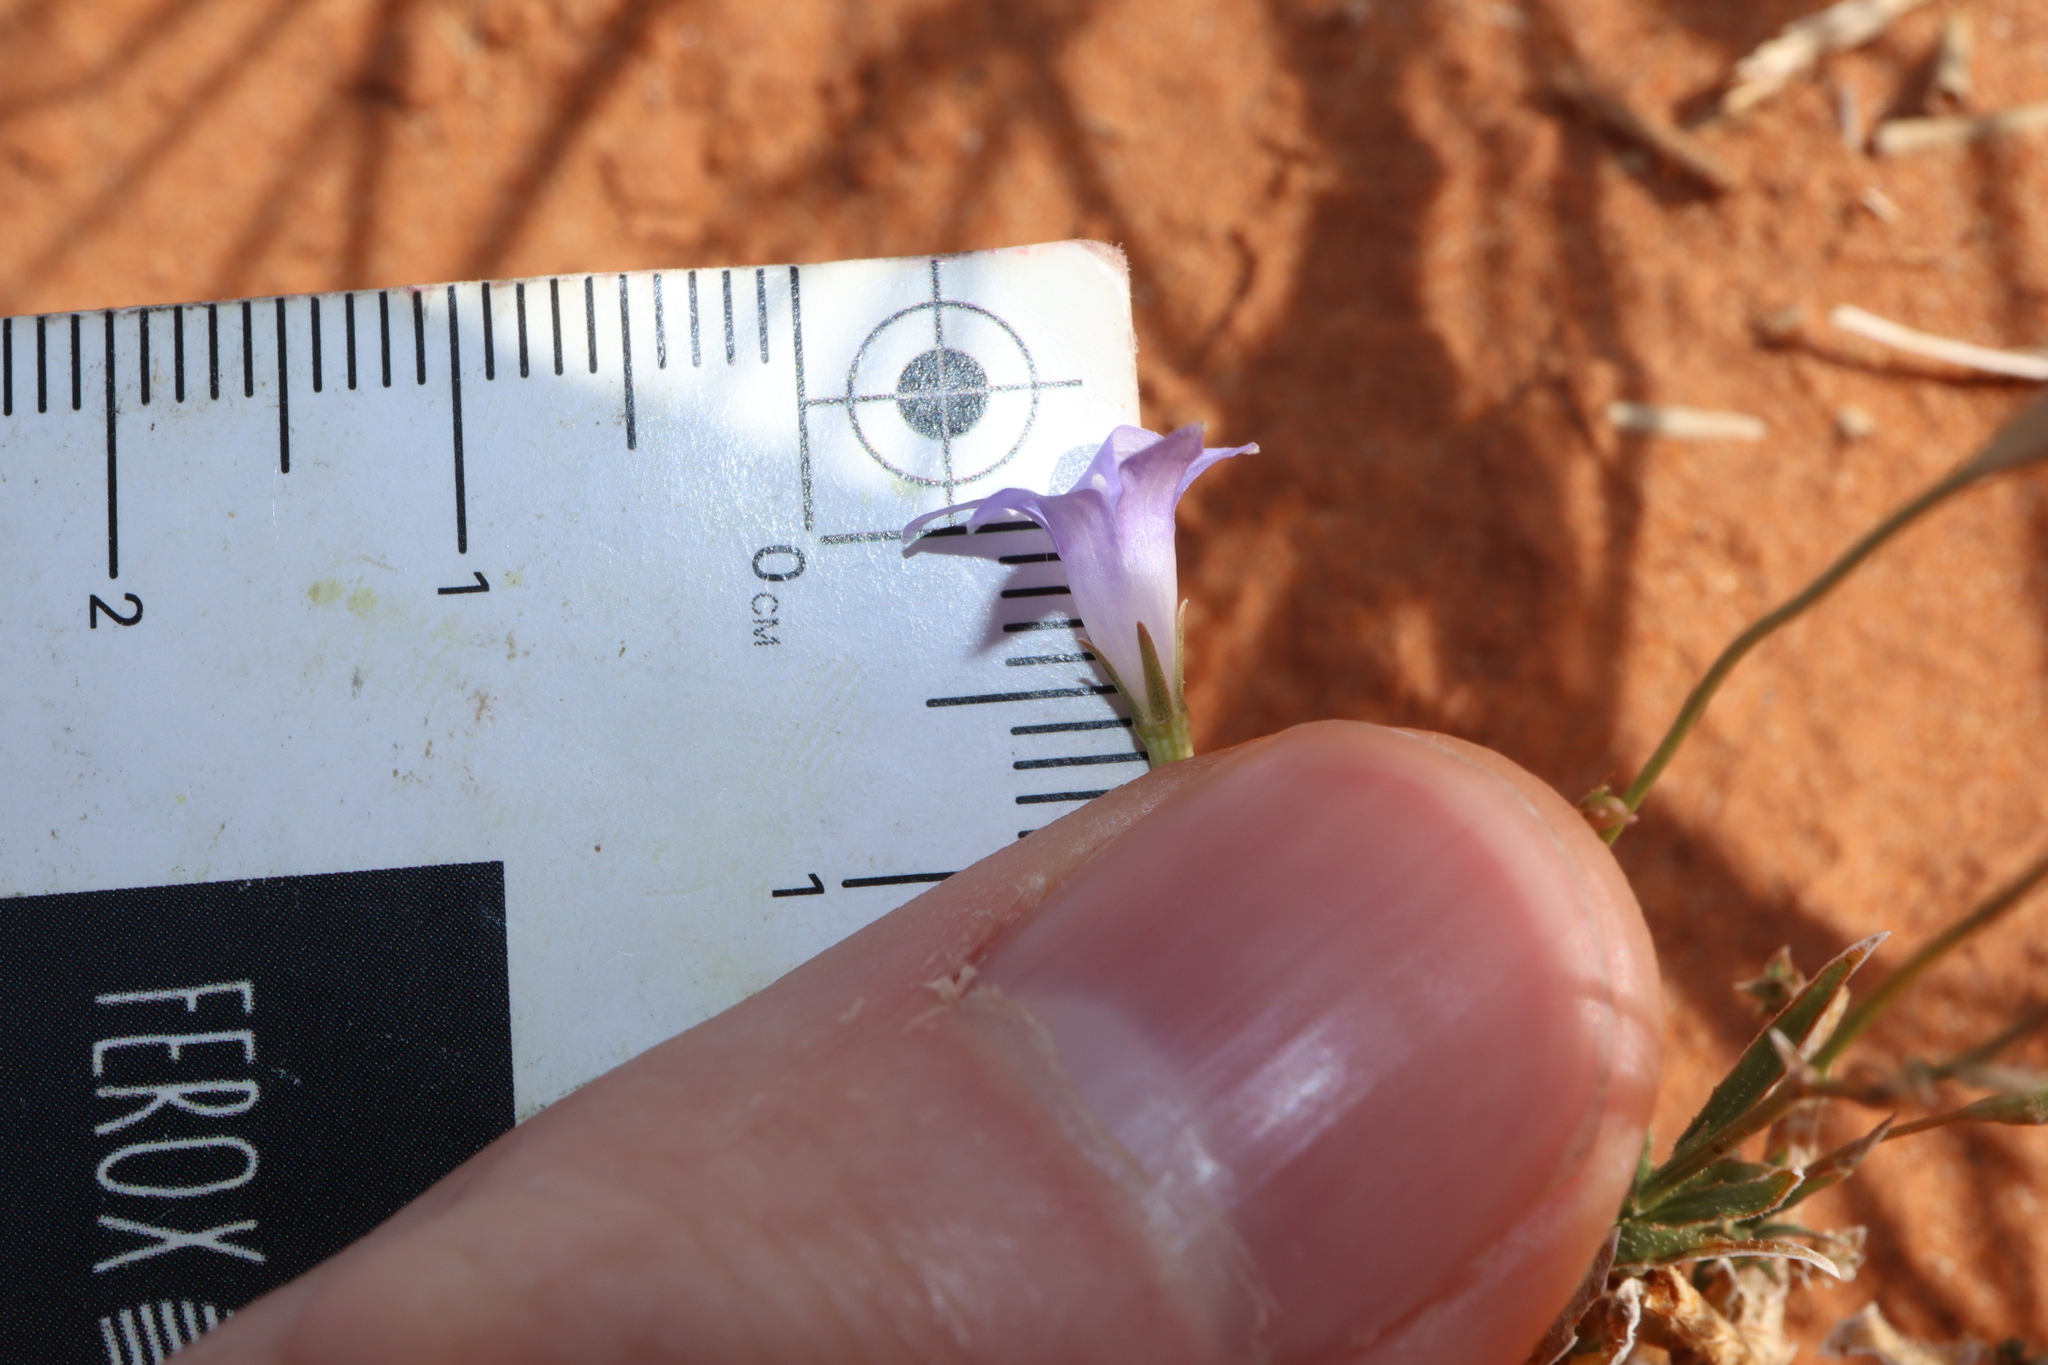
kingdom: Plantae
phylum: Tracheophyta
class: Magnoliopsida
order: Asterales
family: Campanulaceae
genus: Wahlenbergia
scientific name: Wahlenbergia tumidifructa
